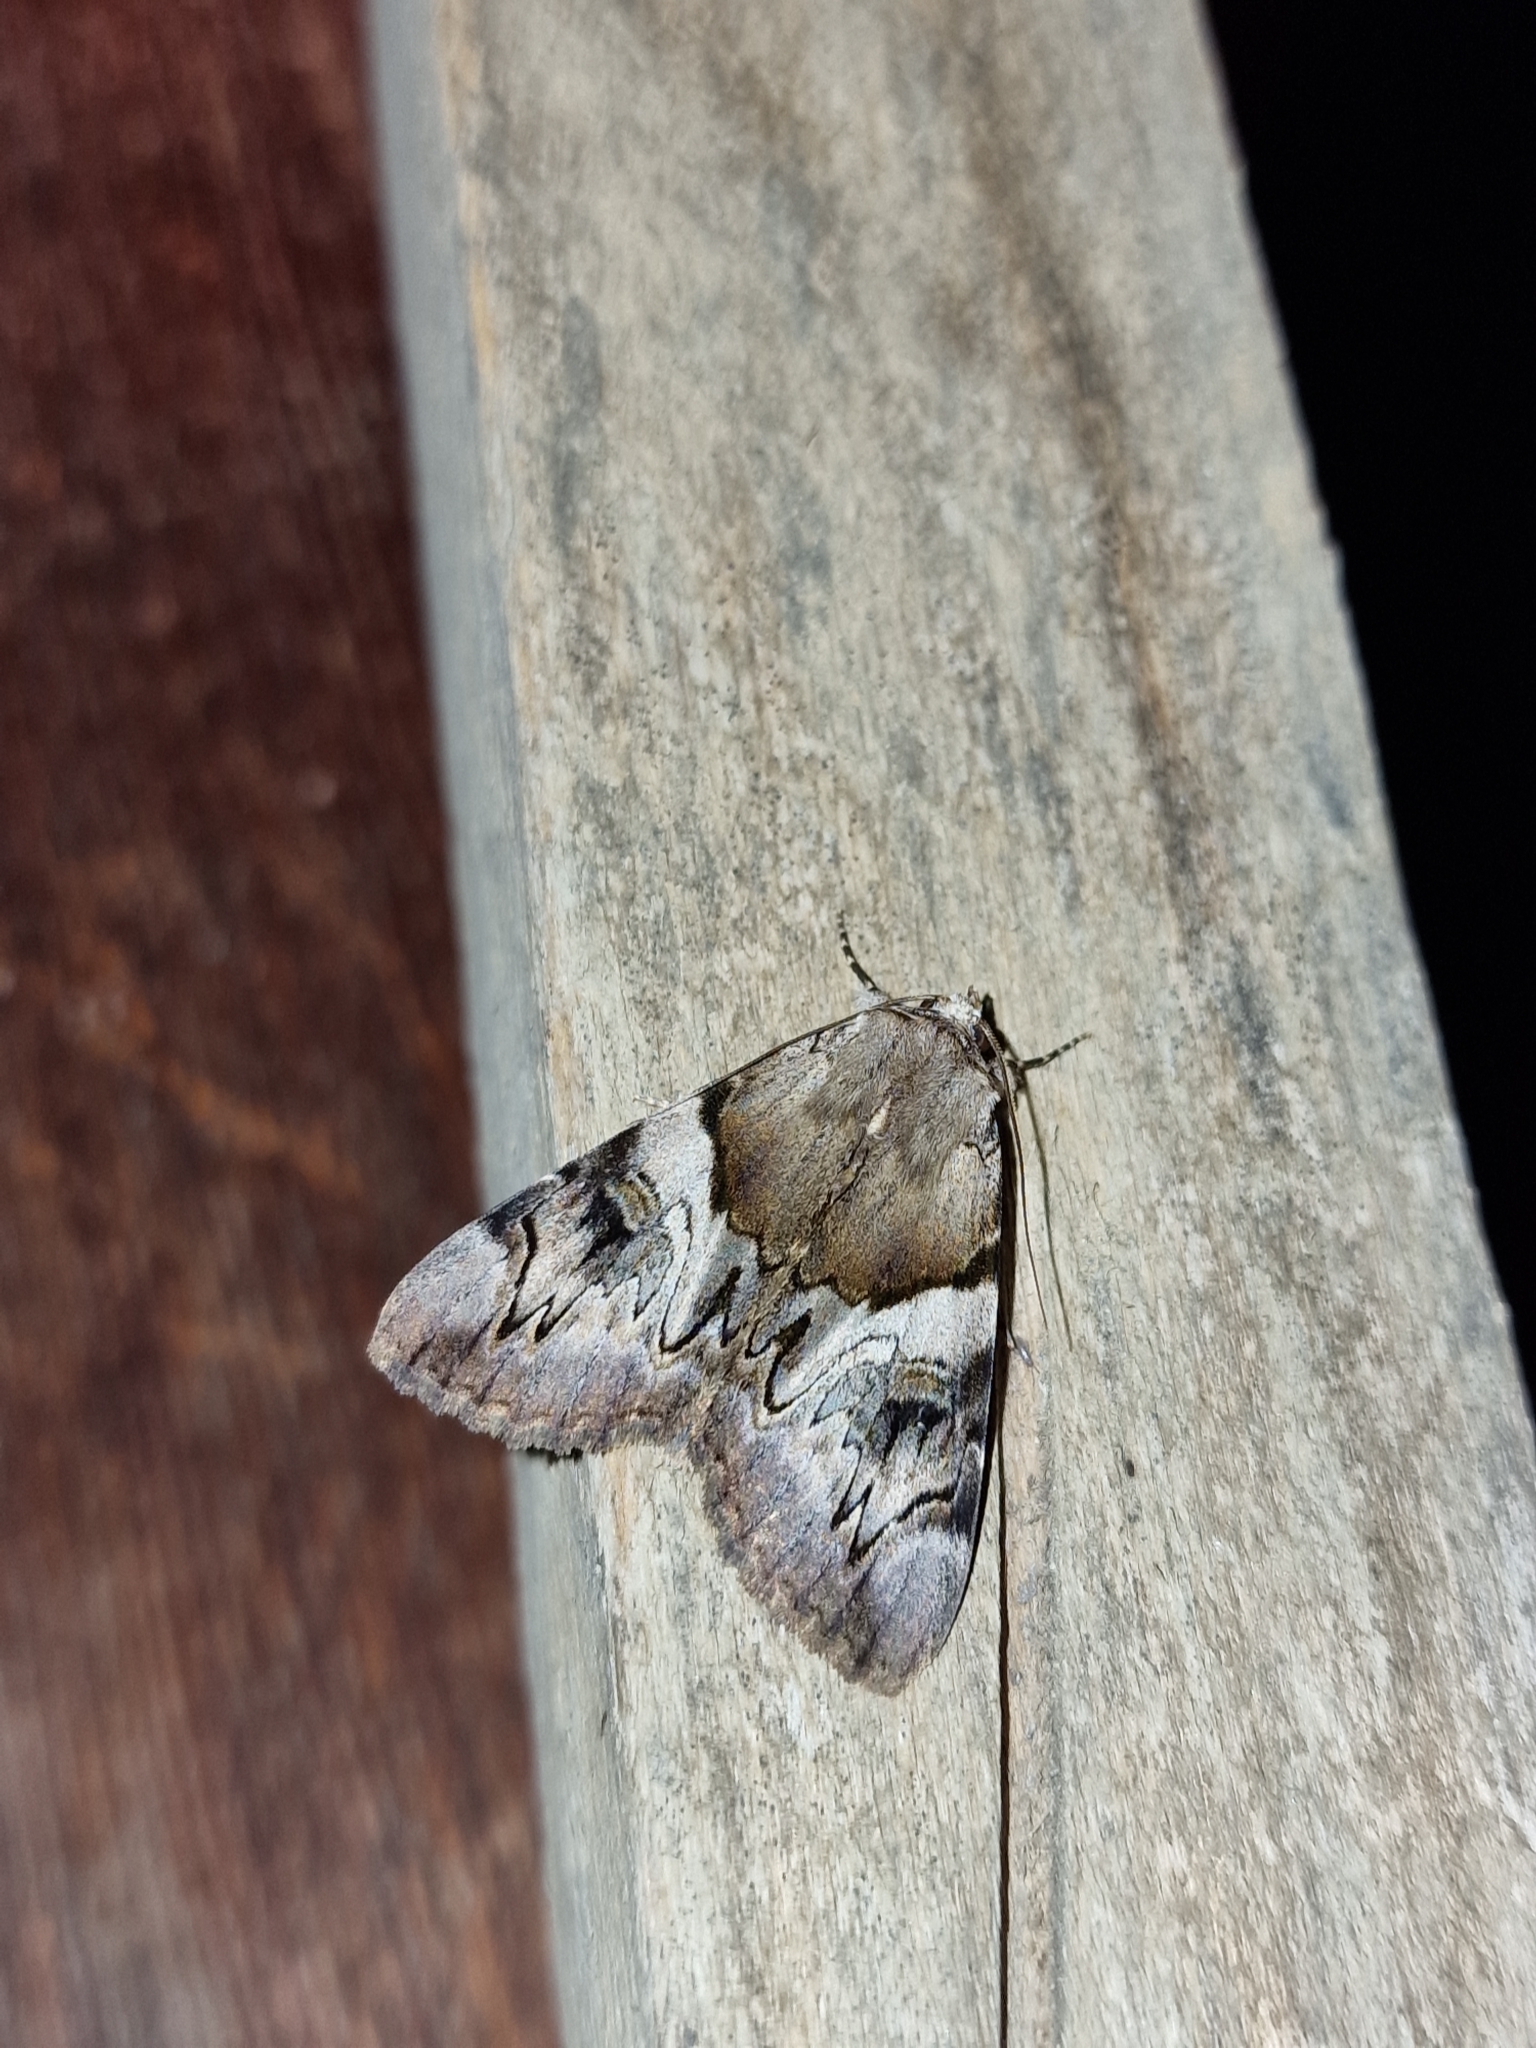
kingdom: Animalia
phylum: Arthropoda
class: Insecta
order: Lepidoptera
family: Erebidae
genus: Catocala
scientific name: Catocala fulminea
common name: Yellow bands underwing
